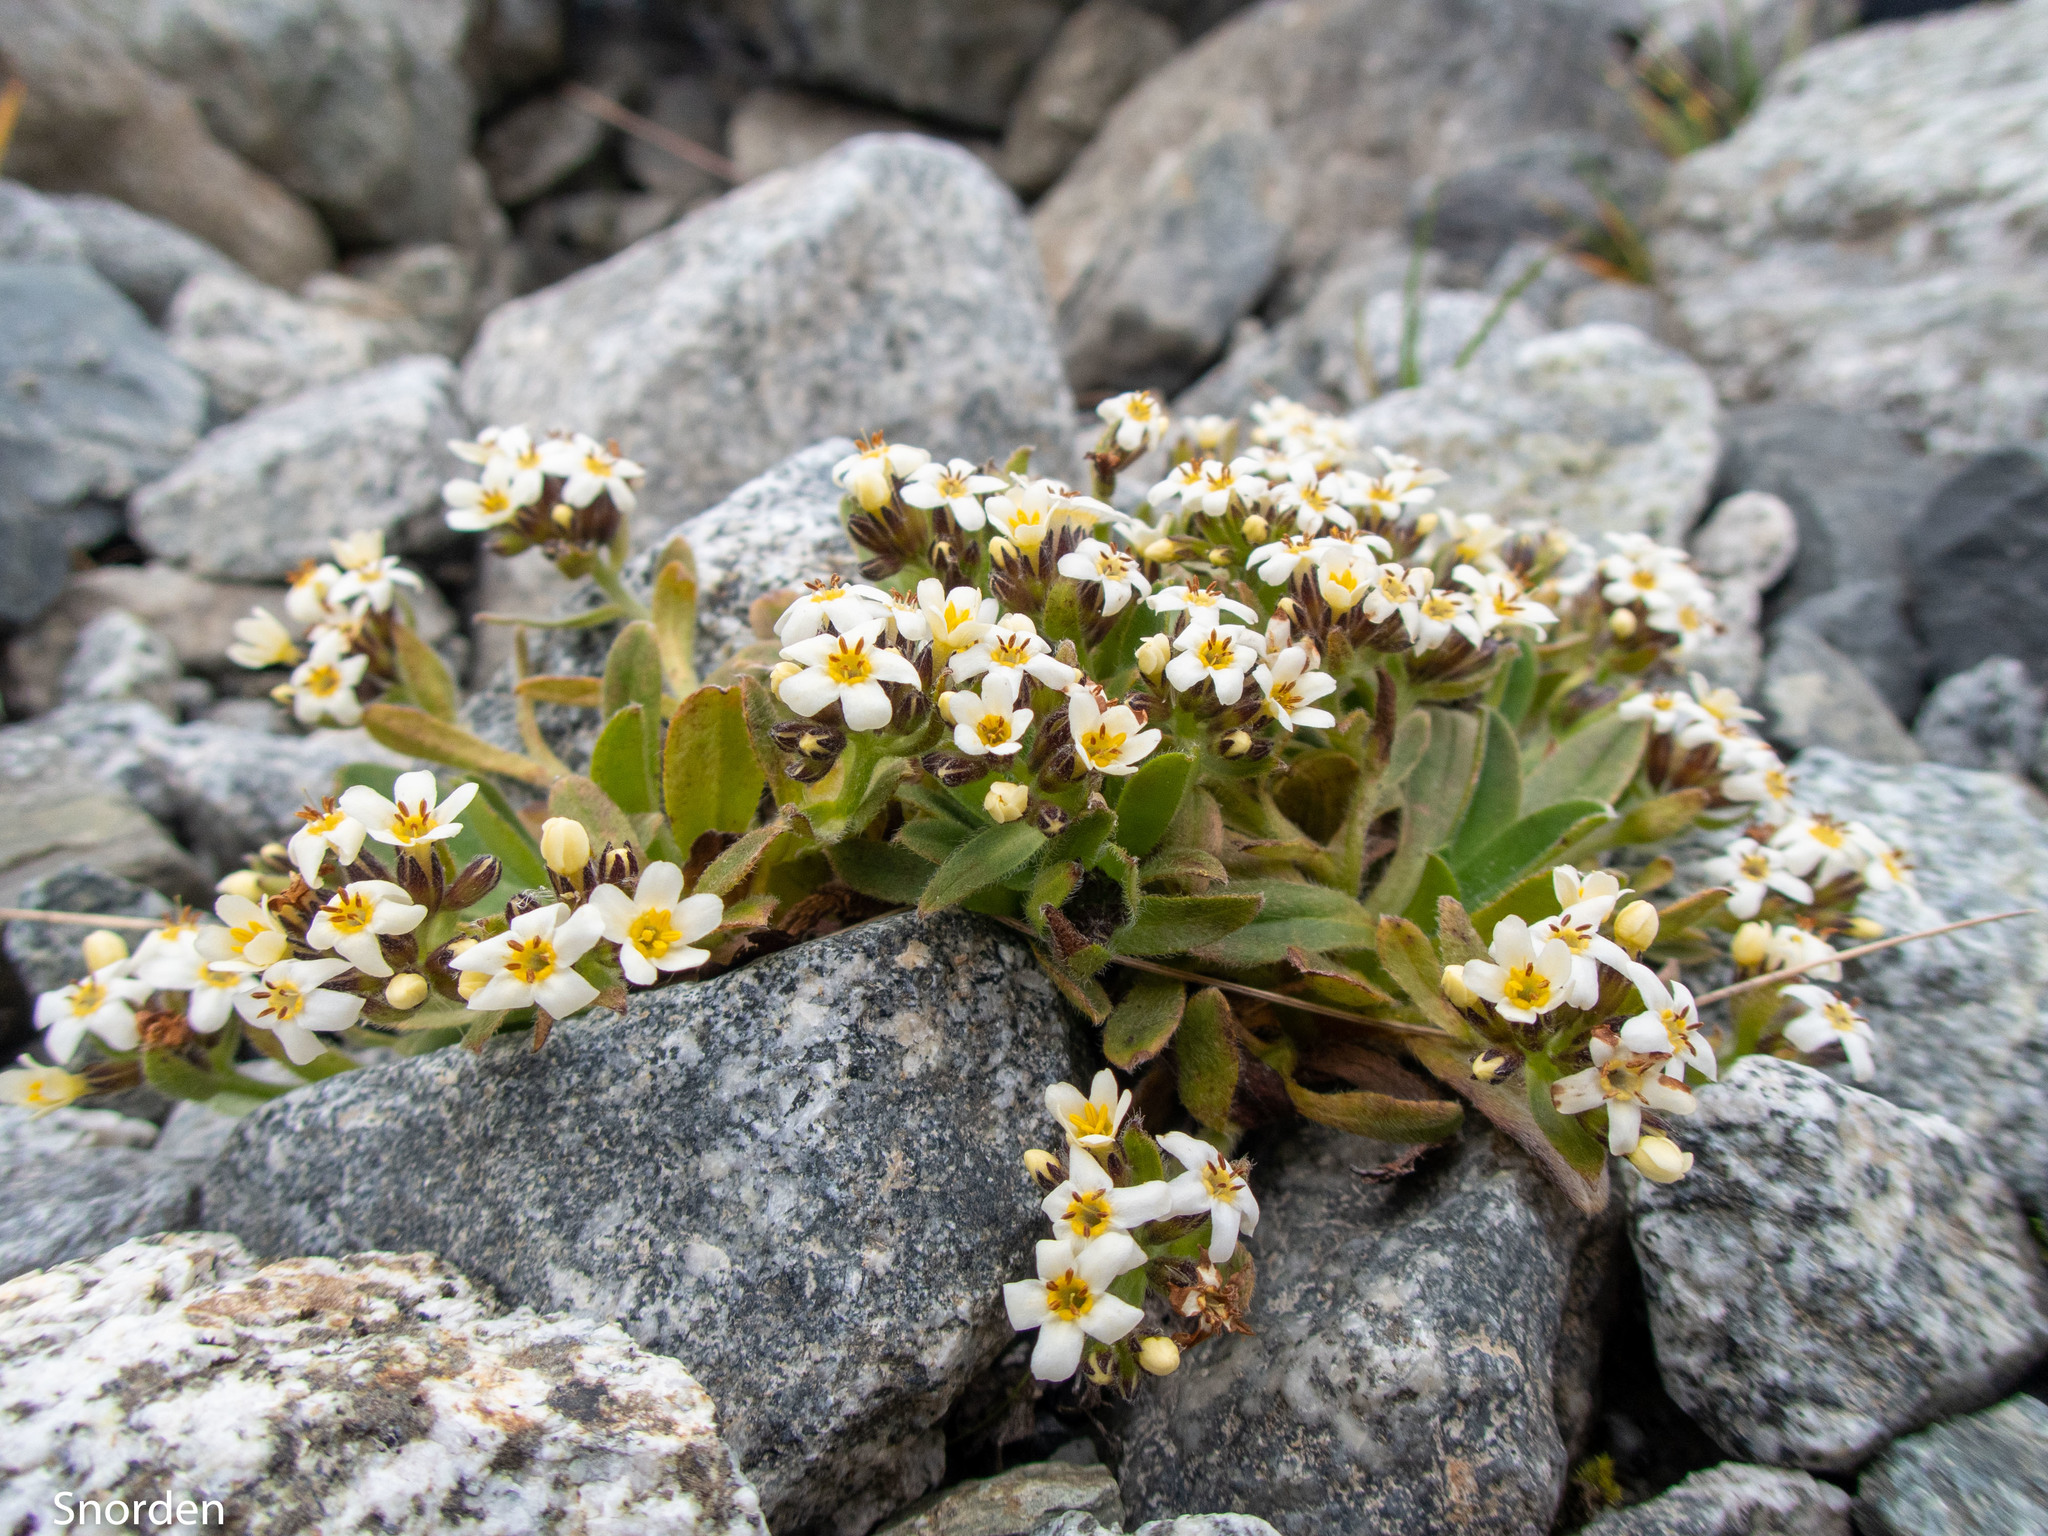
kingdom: Plantae
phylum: Tracheophyta
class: Magnoliopsida
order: Boraginales
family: Boraginaceae
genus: Myosotis
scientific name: Myosotis lyallii
